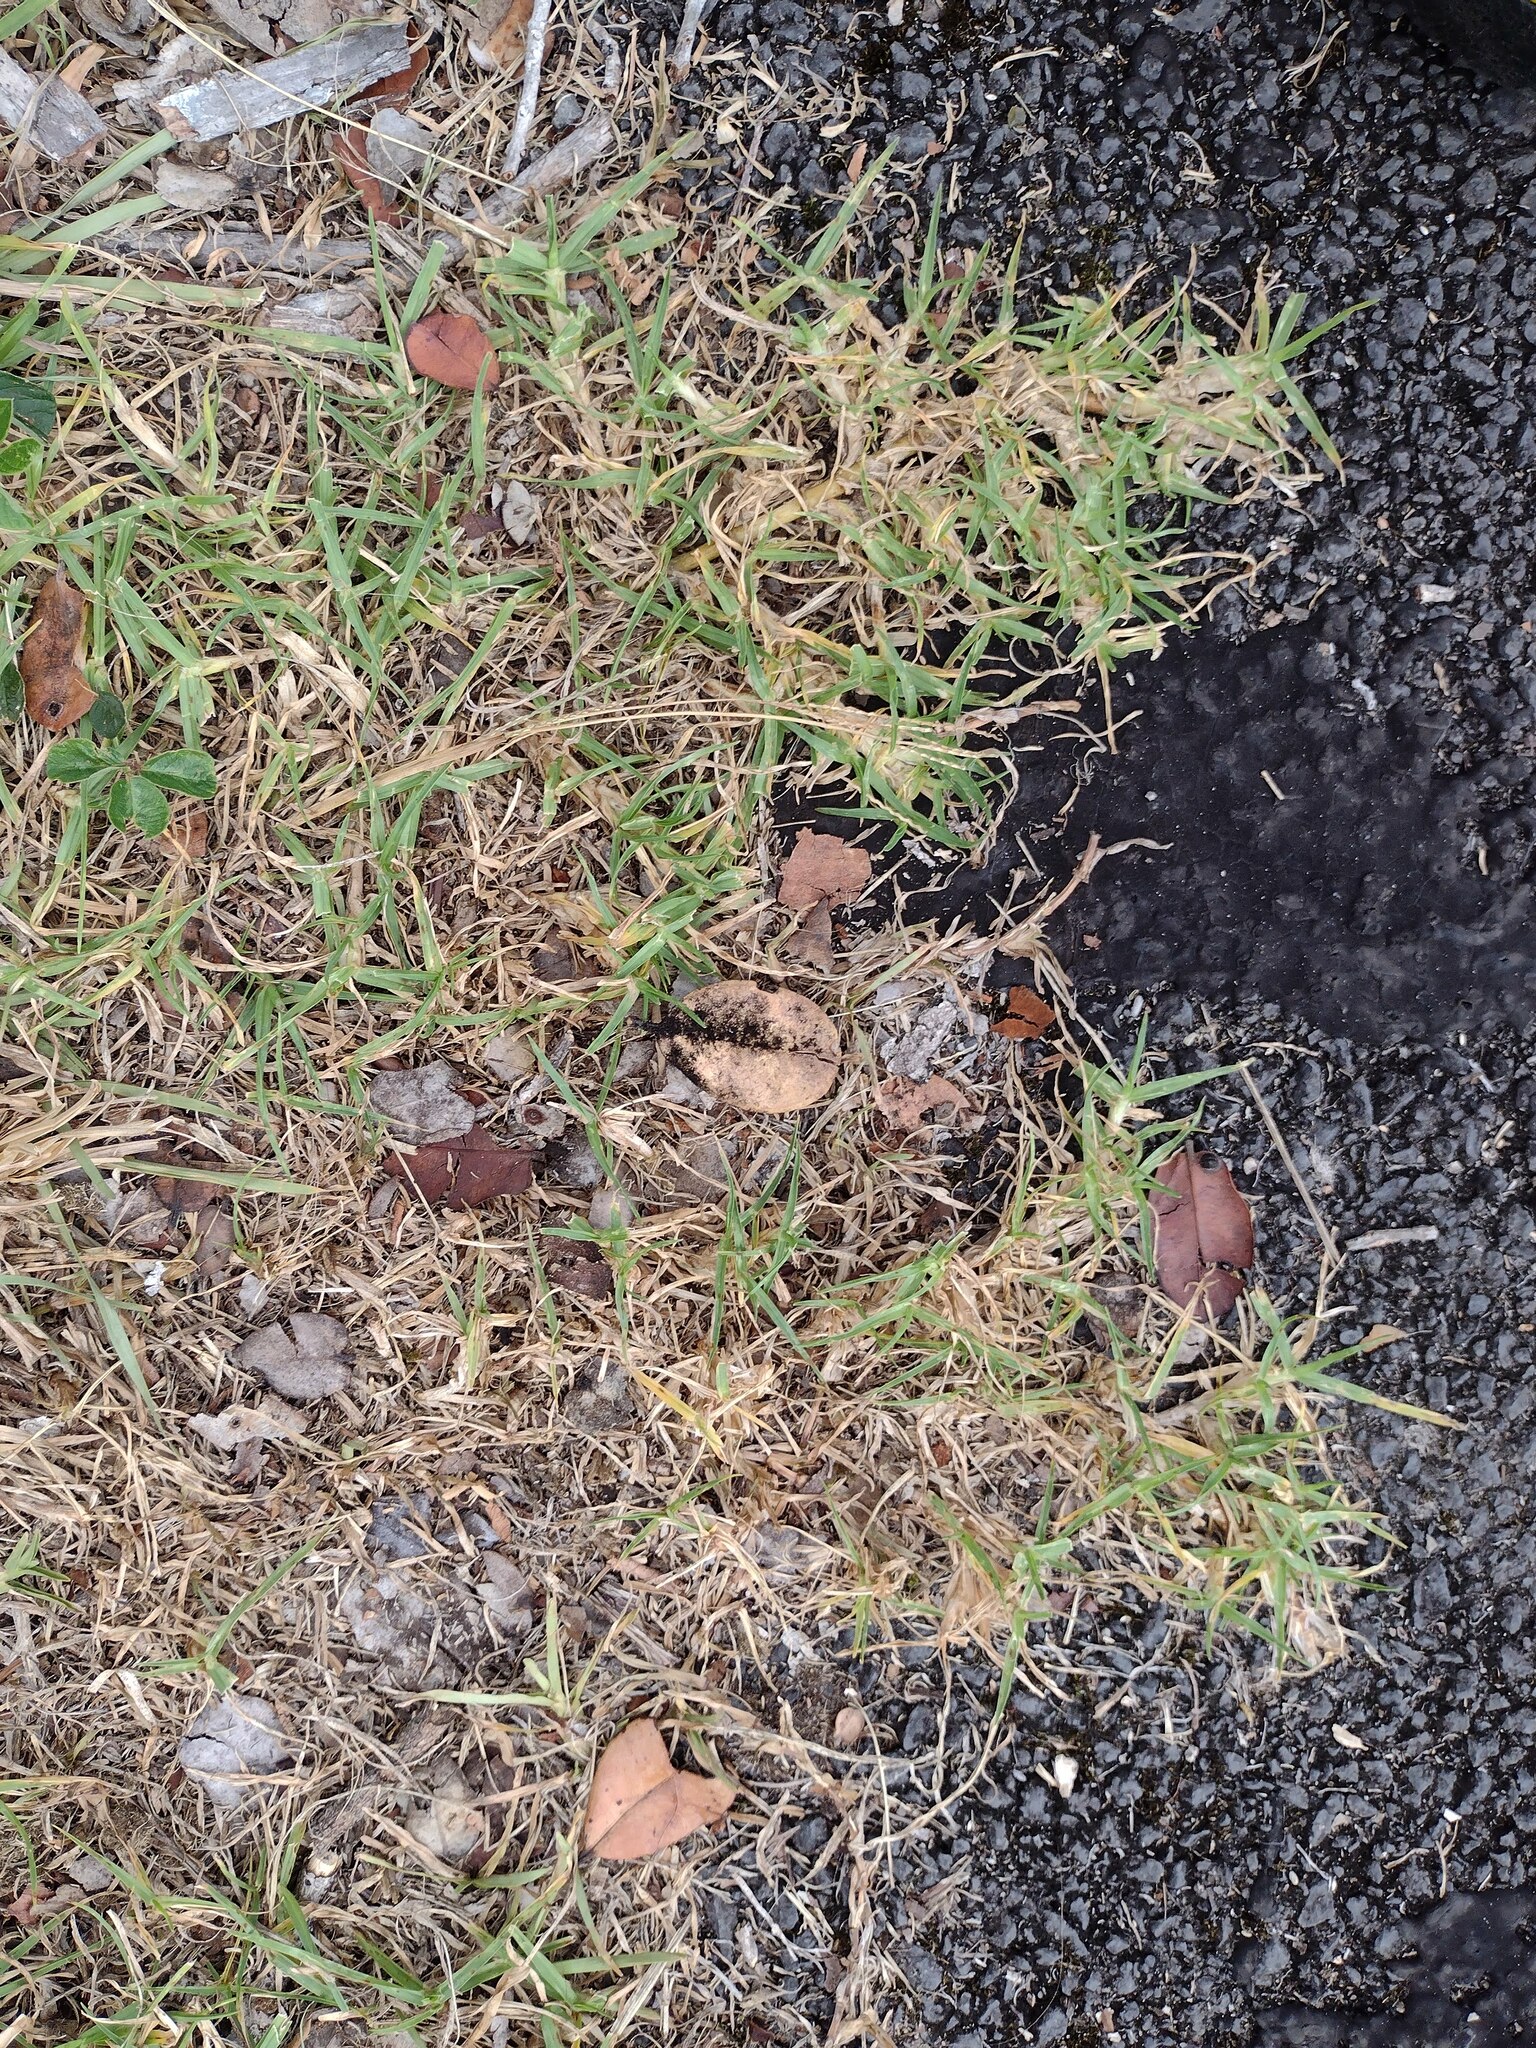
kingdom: Plantae
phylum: Tracheophyta
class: Liliopsida
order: Poales
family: Poaceae
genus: Cenchrus
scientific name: Cenchrus clandestinus
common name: Kikuyugrass
